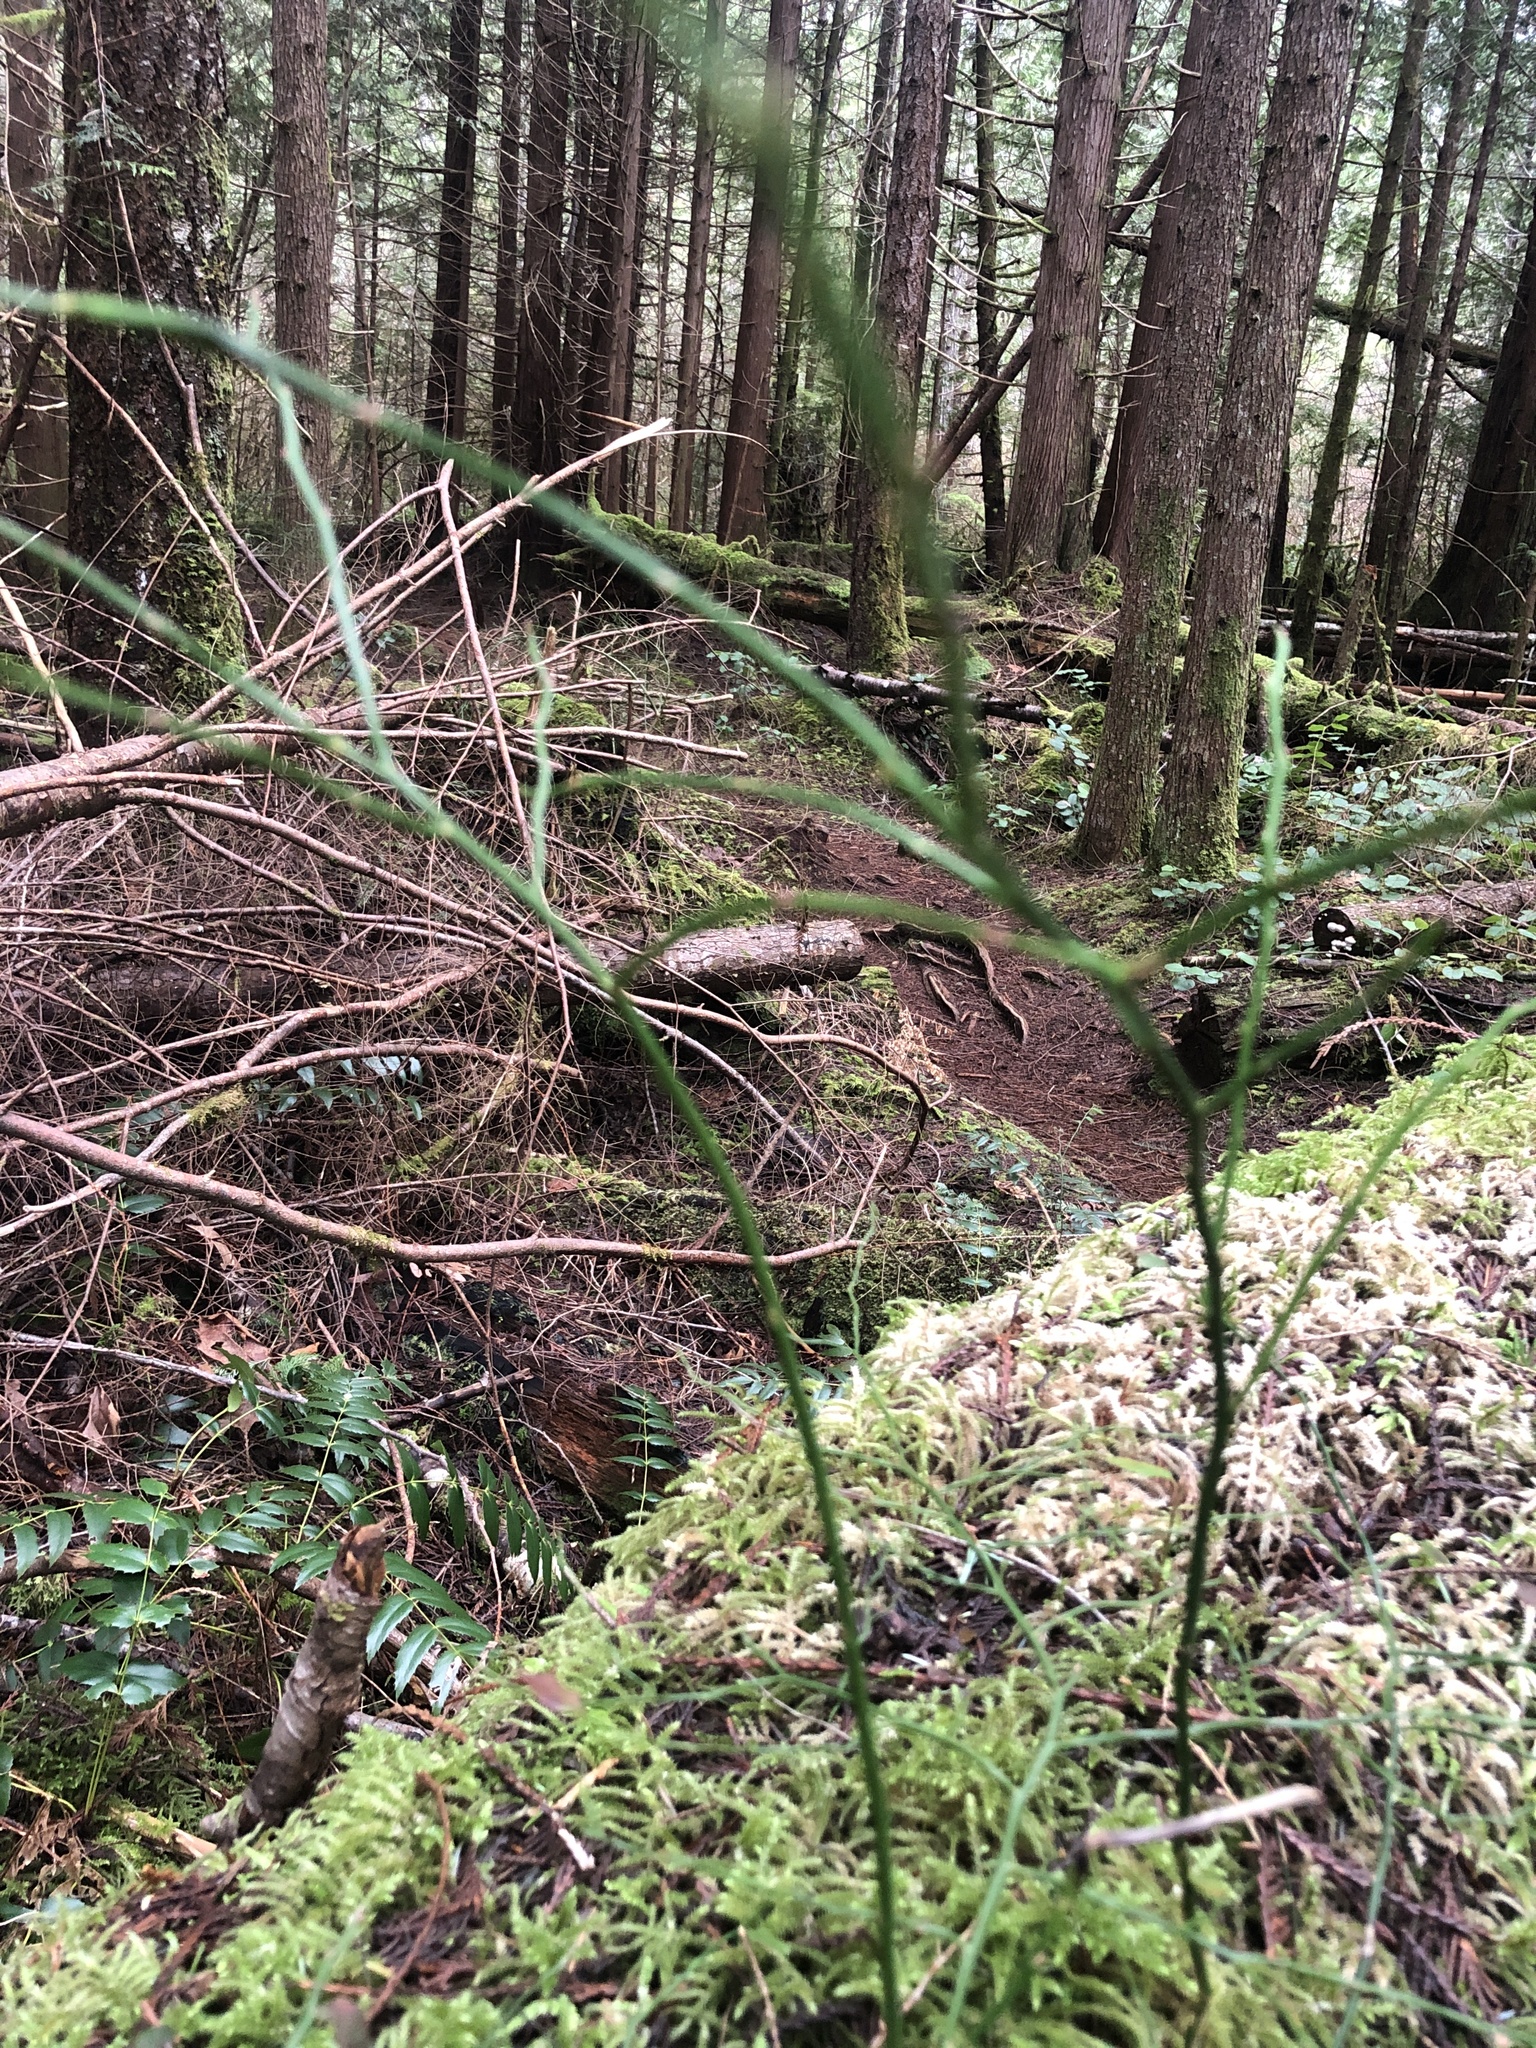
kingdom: Plantae
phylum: Tracheophyta
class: Magnoliopsida
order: Ericales
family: Ericaceae
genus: Vaccinium
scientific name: Vaccinium parvifolium
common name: Red-huckleberry
